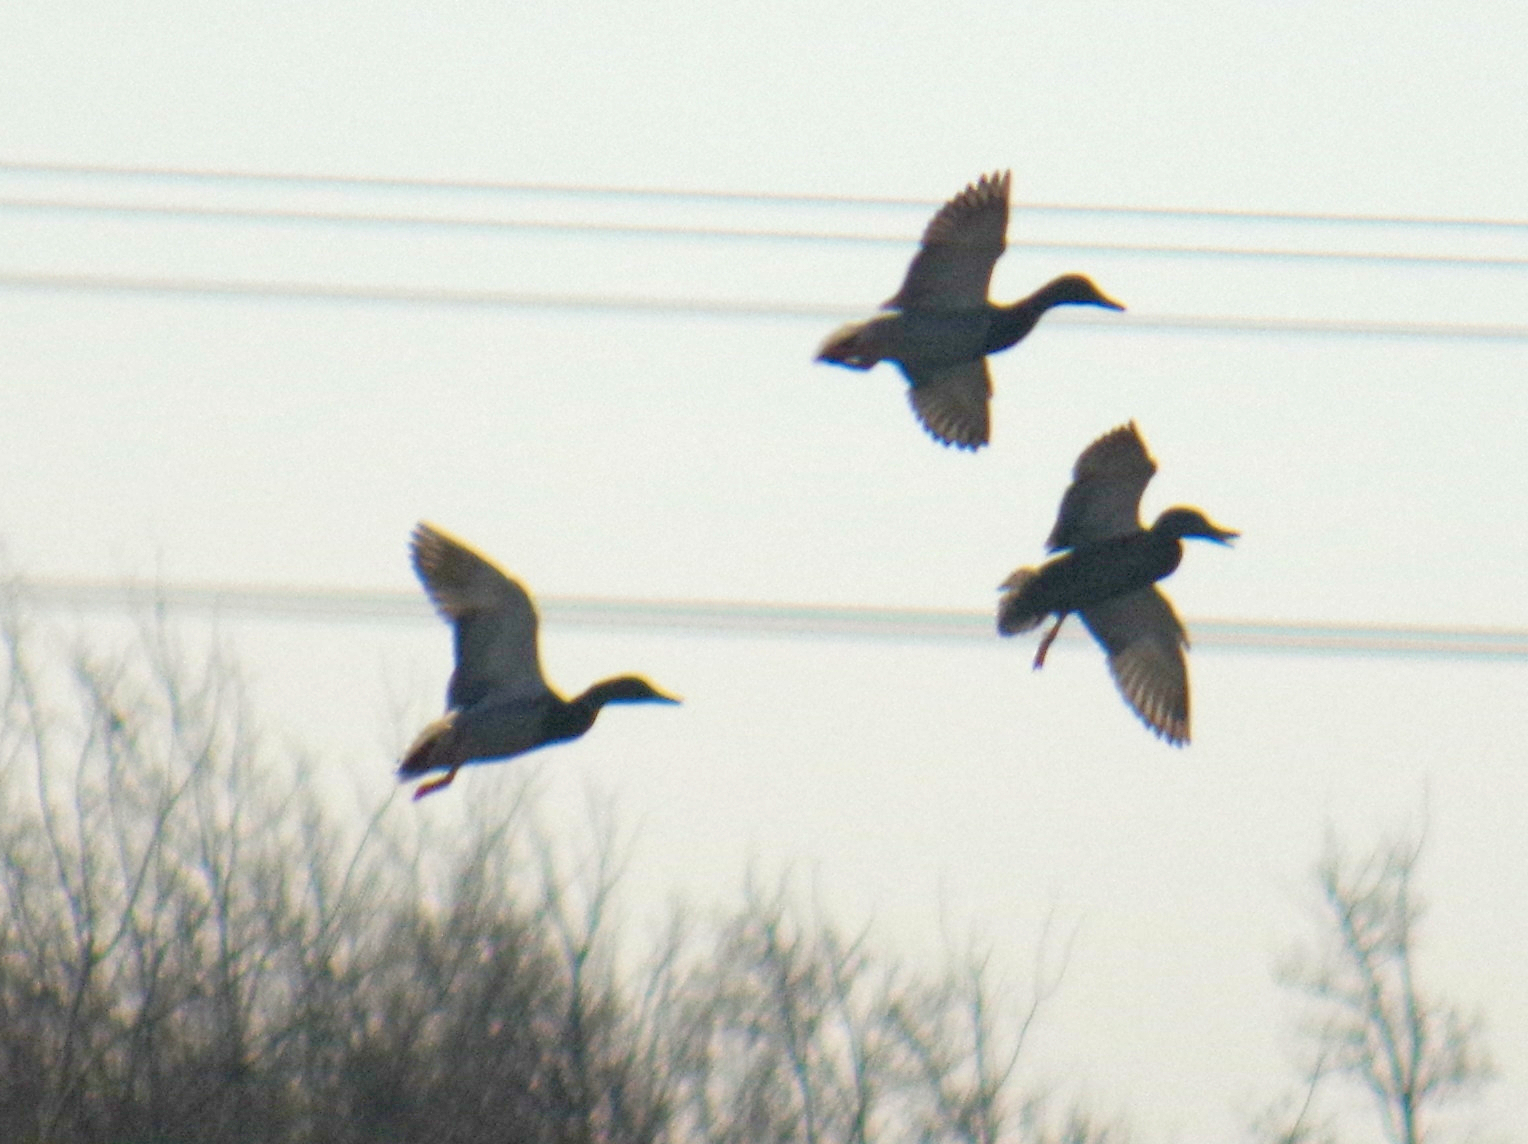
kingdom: Animalia
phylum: Chordata
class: Aves
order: Anseriformes
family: Anatidae
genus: Anas
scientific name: Anas platyrhynchos
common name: Mallard
